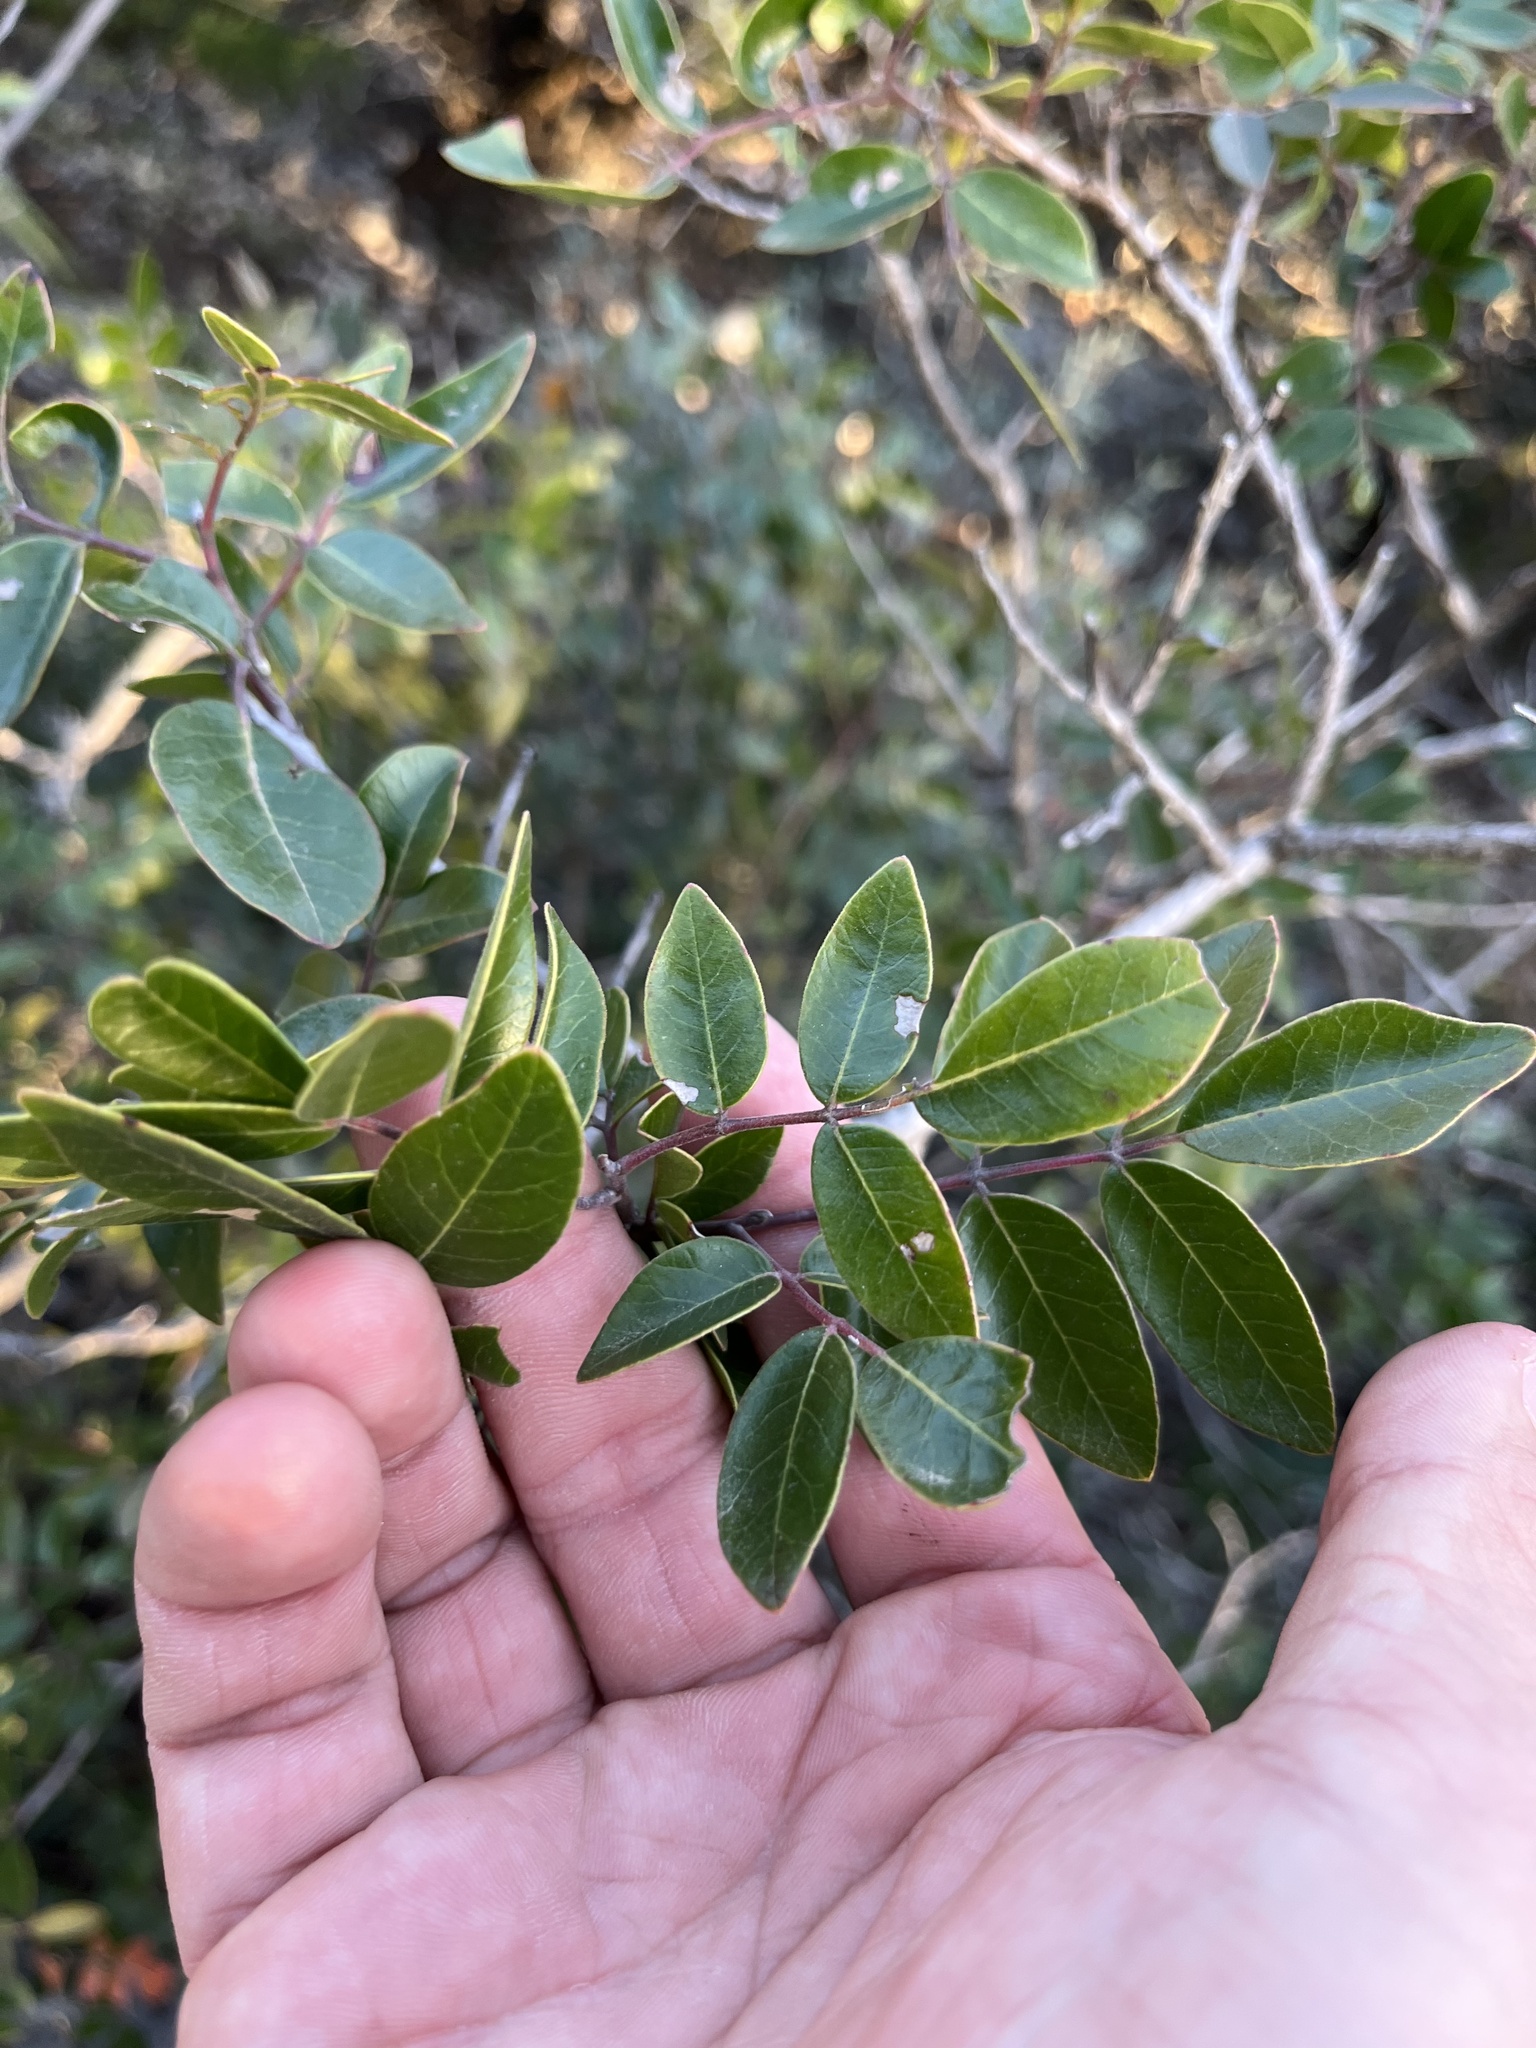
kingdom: Plantae
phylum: Tracheophyta
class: Magnoliopsida
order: Sapindales
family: Anacardiaceae
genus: Rhus
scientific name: Rhus virens
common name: Evergreen sumac
